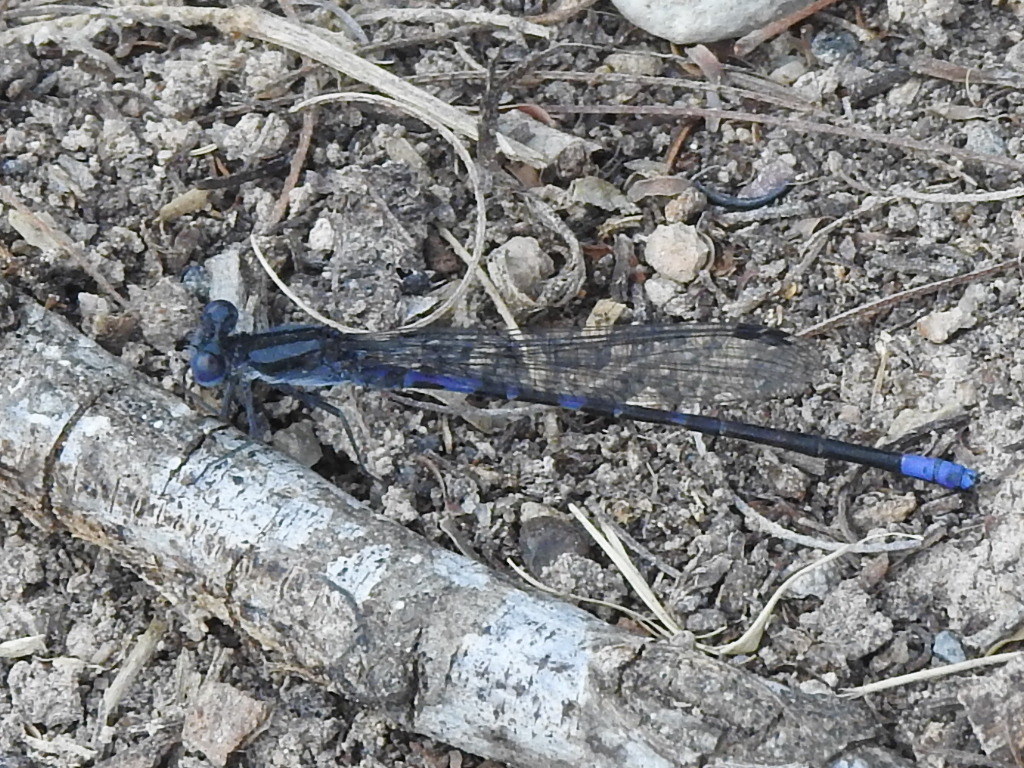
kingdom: Animalia
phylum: Arthropoda
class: Insecta
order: Odonata
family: Coenagrionidae
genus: Argia
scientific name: Argia immunda
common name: Kiowa dancer
